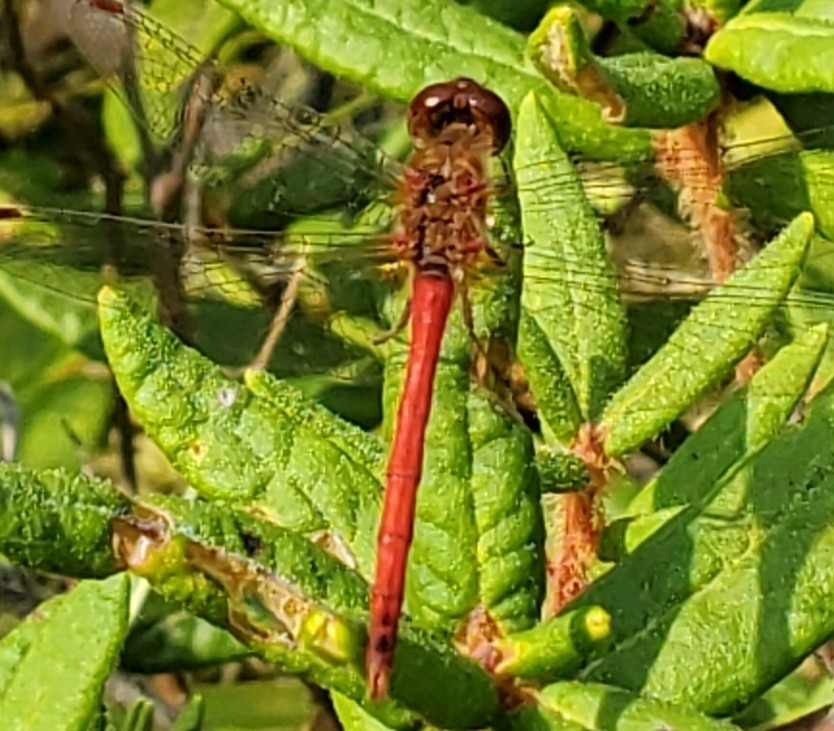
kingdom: Animalia
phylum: Arthropoda
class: Insecta
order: Odonata
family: Libellulidae
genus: Sympetrum
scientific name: Sympetrum vicinum
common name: Autumn meadowhawk
